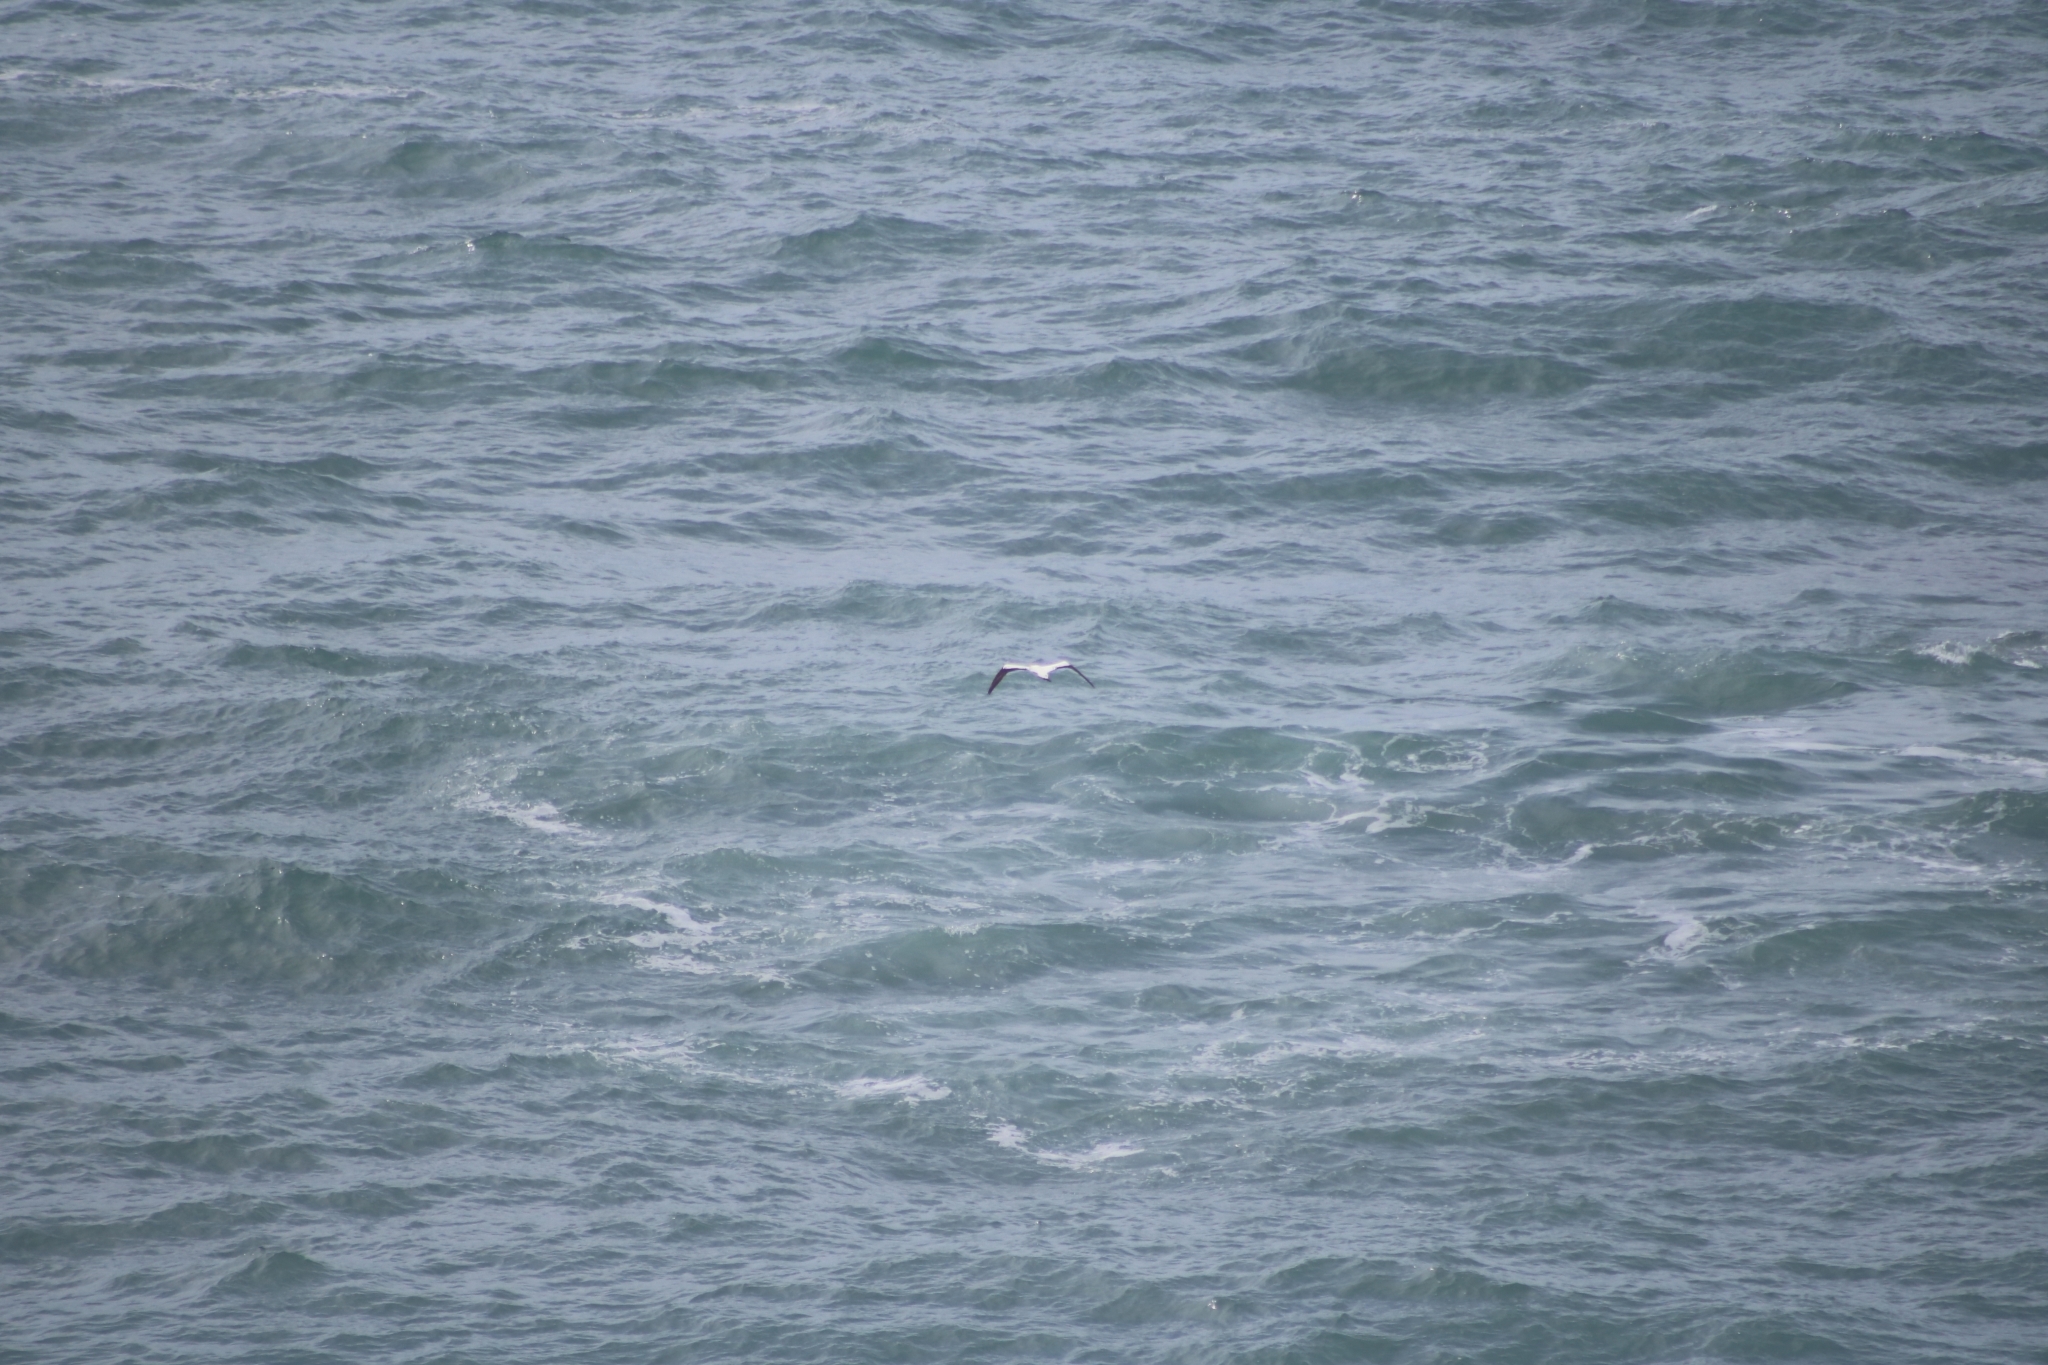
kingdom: Animalia
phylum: Chordata
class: Aves
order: Suliformes
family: Sulidae
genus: Morus
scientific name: Morus serrator
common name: Australasian gannet
